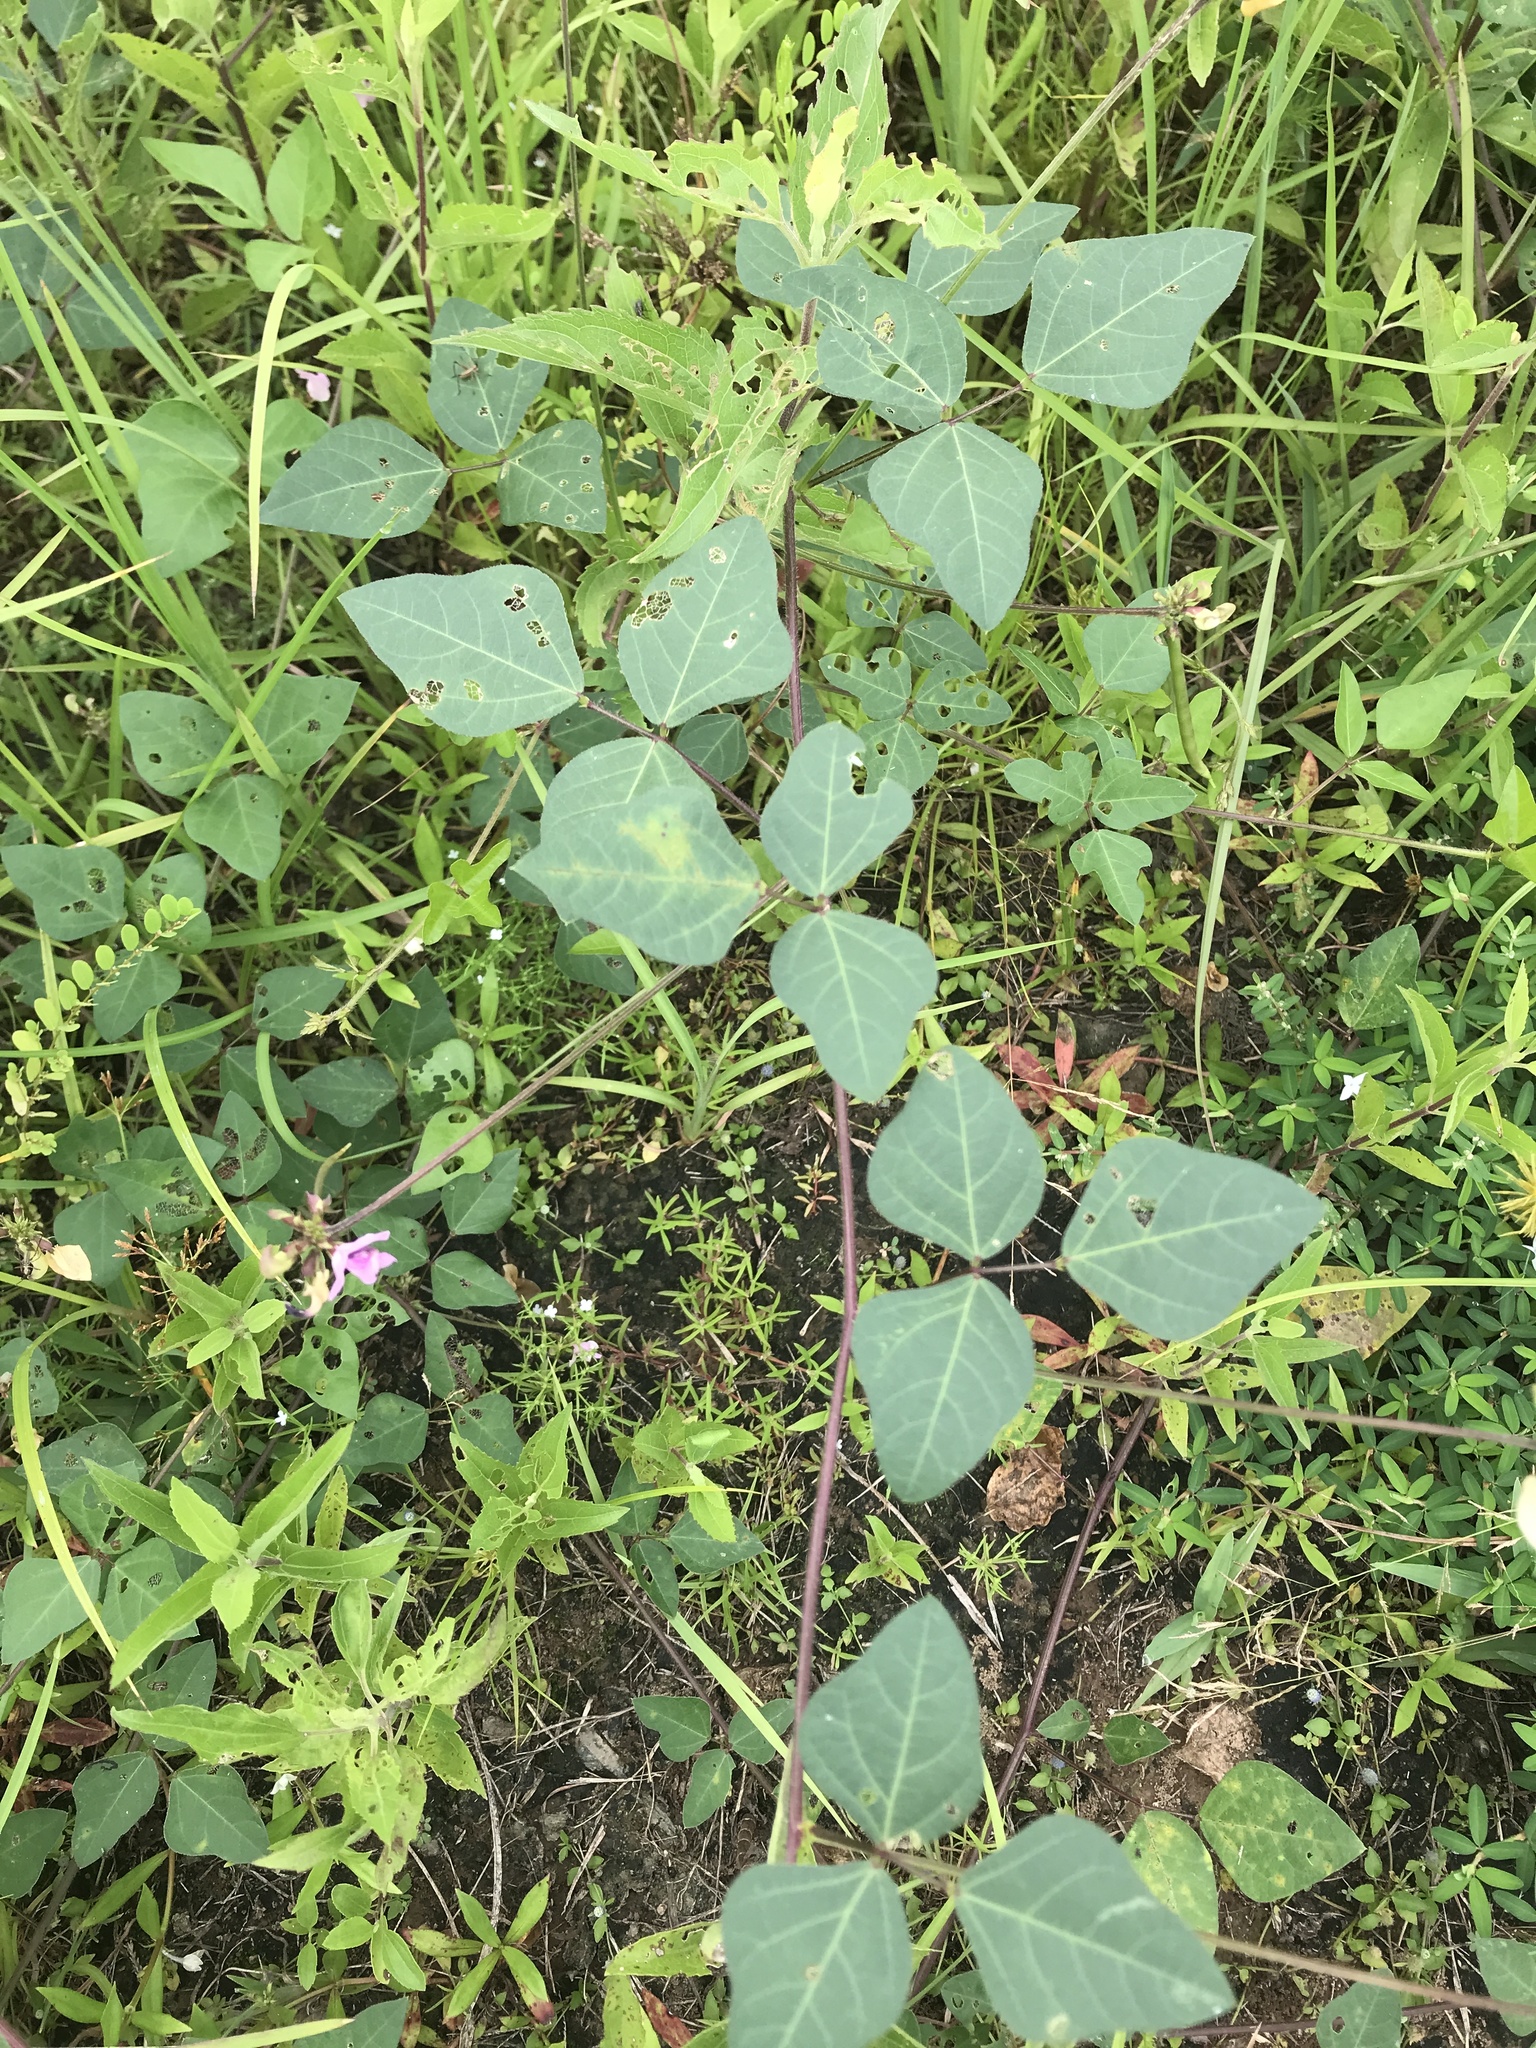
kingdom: Plantae
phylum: Tracheophyta
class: Magnoliopsida
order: Fabales
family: Fabaceae
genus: Strophostyles
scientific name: Strophostyles helvola
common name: Trailing wild bean
